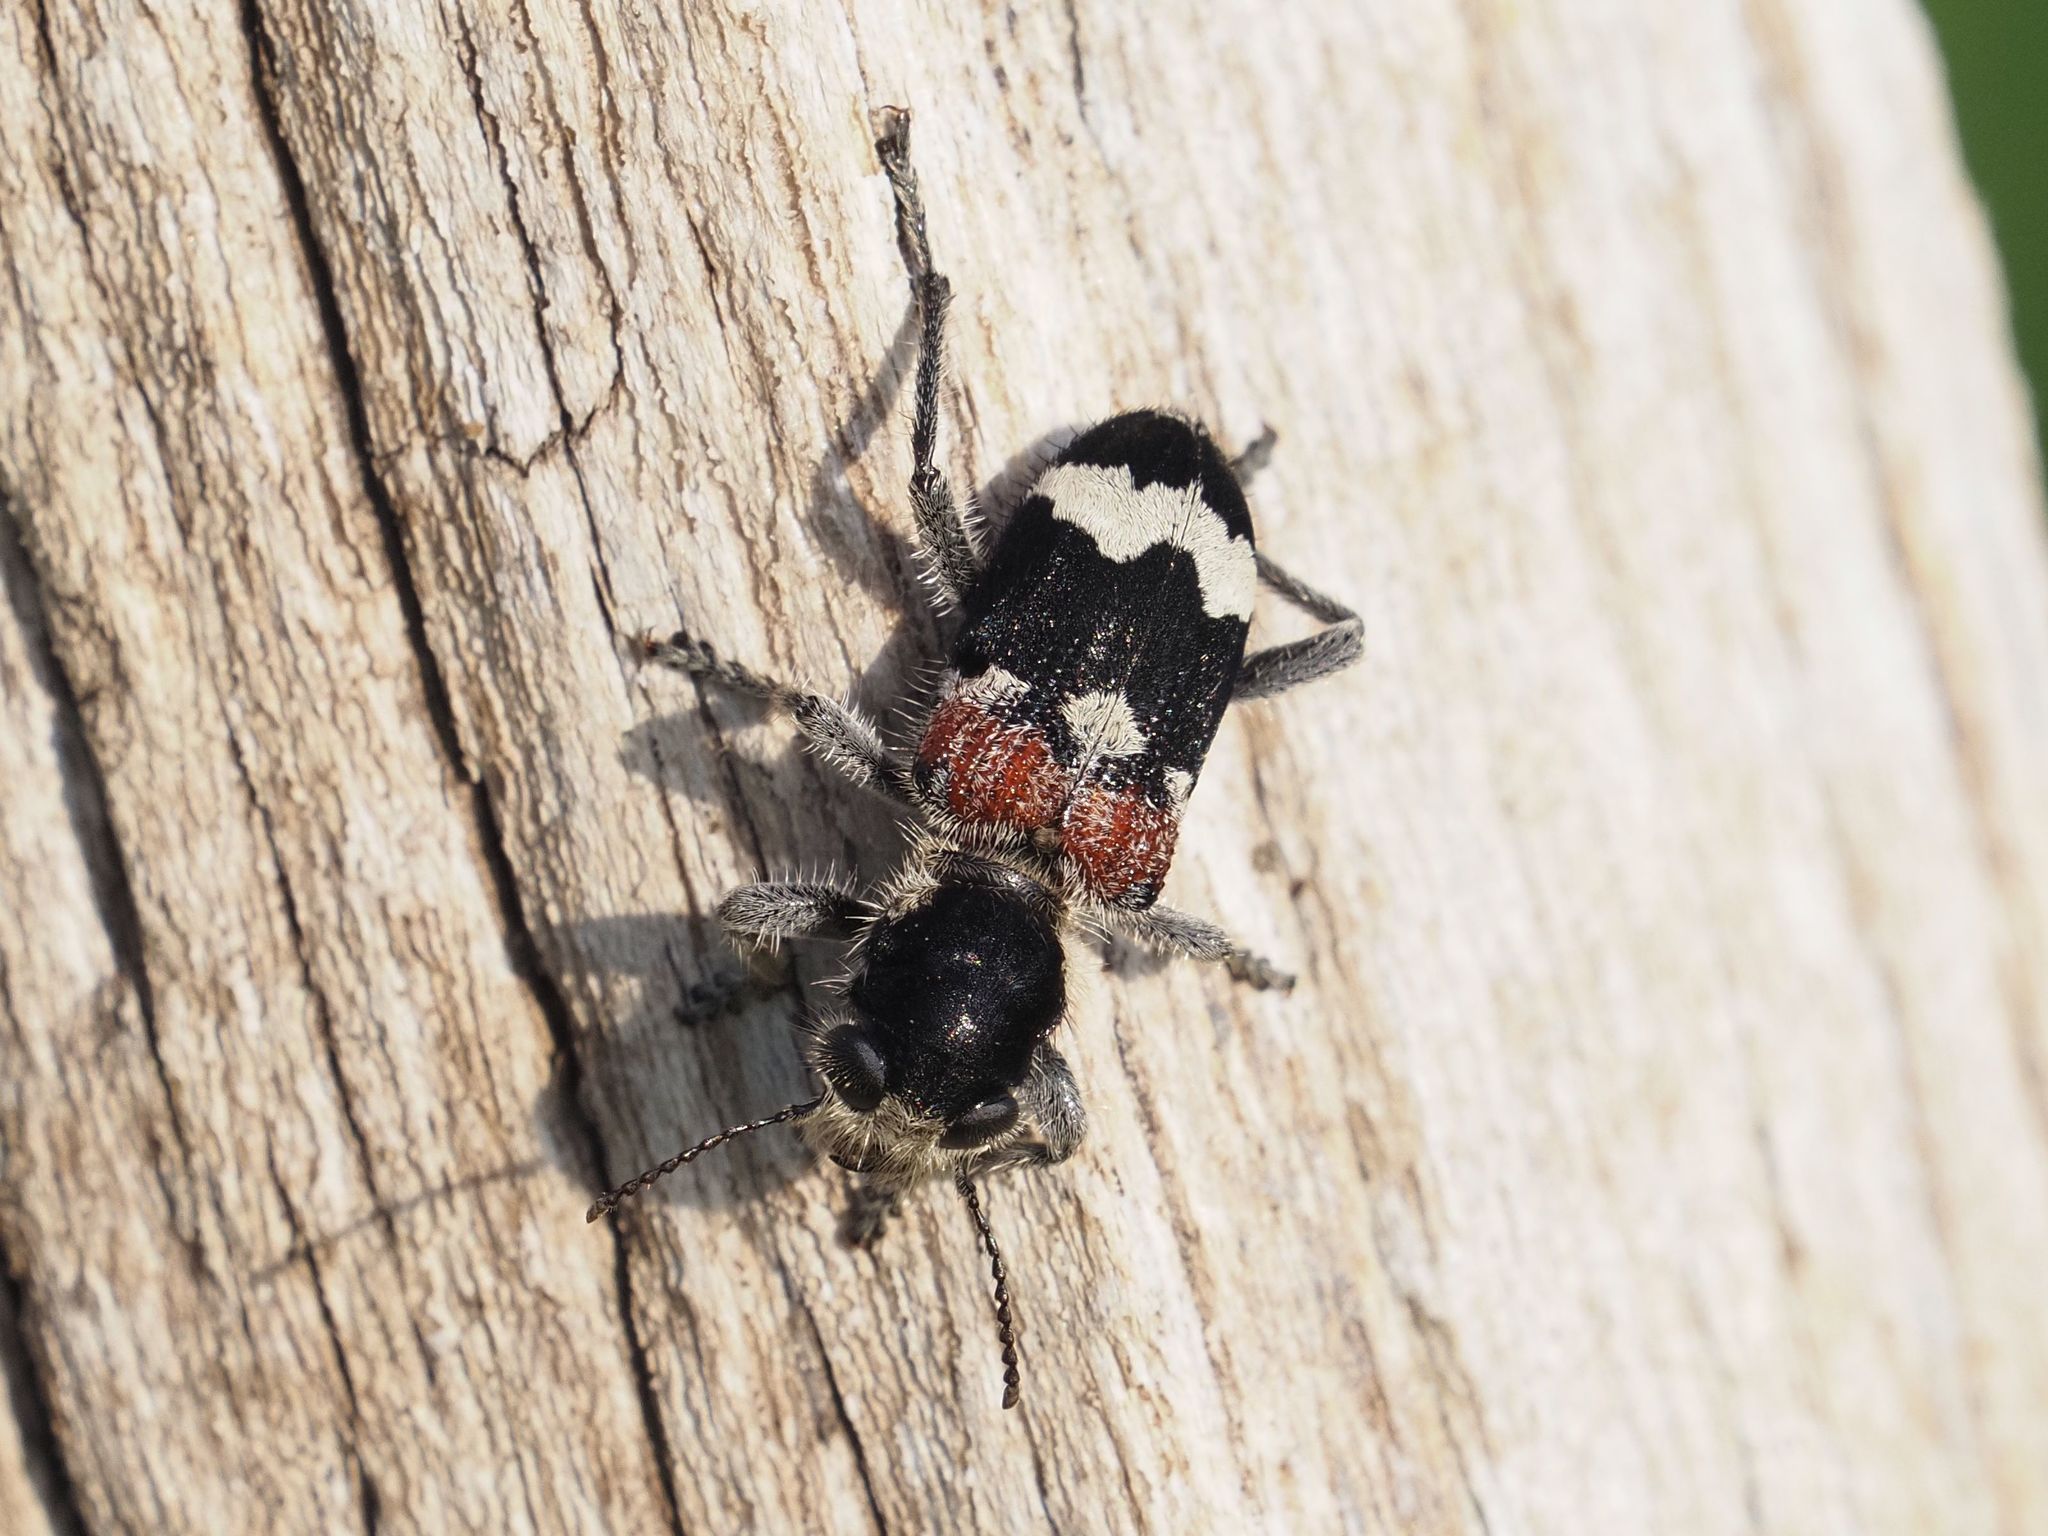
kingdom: Animalia
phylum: Arthropoda
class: Insecta
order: Coleoptera
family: Cleridae
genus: Clerus
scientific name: Clerus mutillarius
